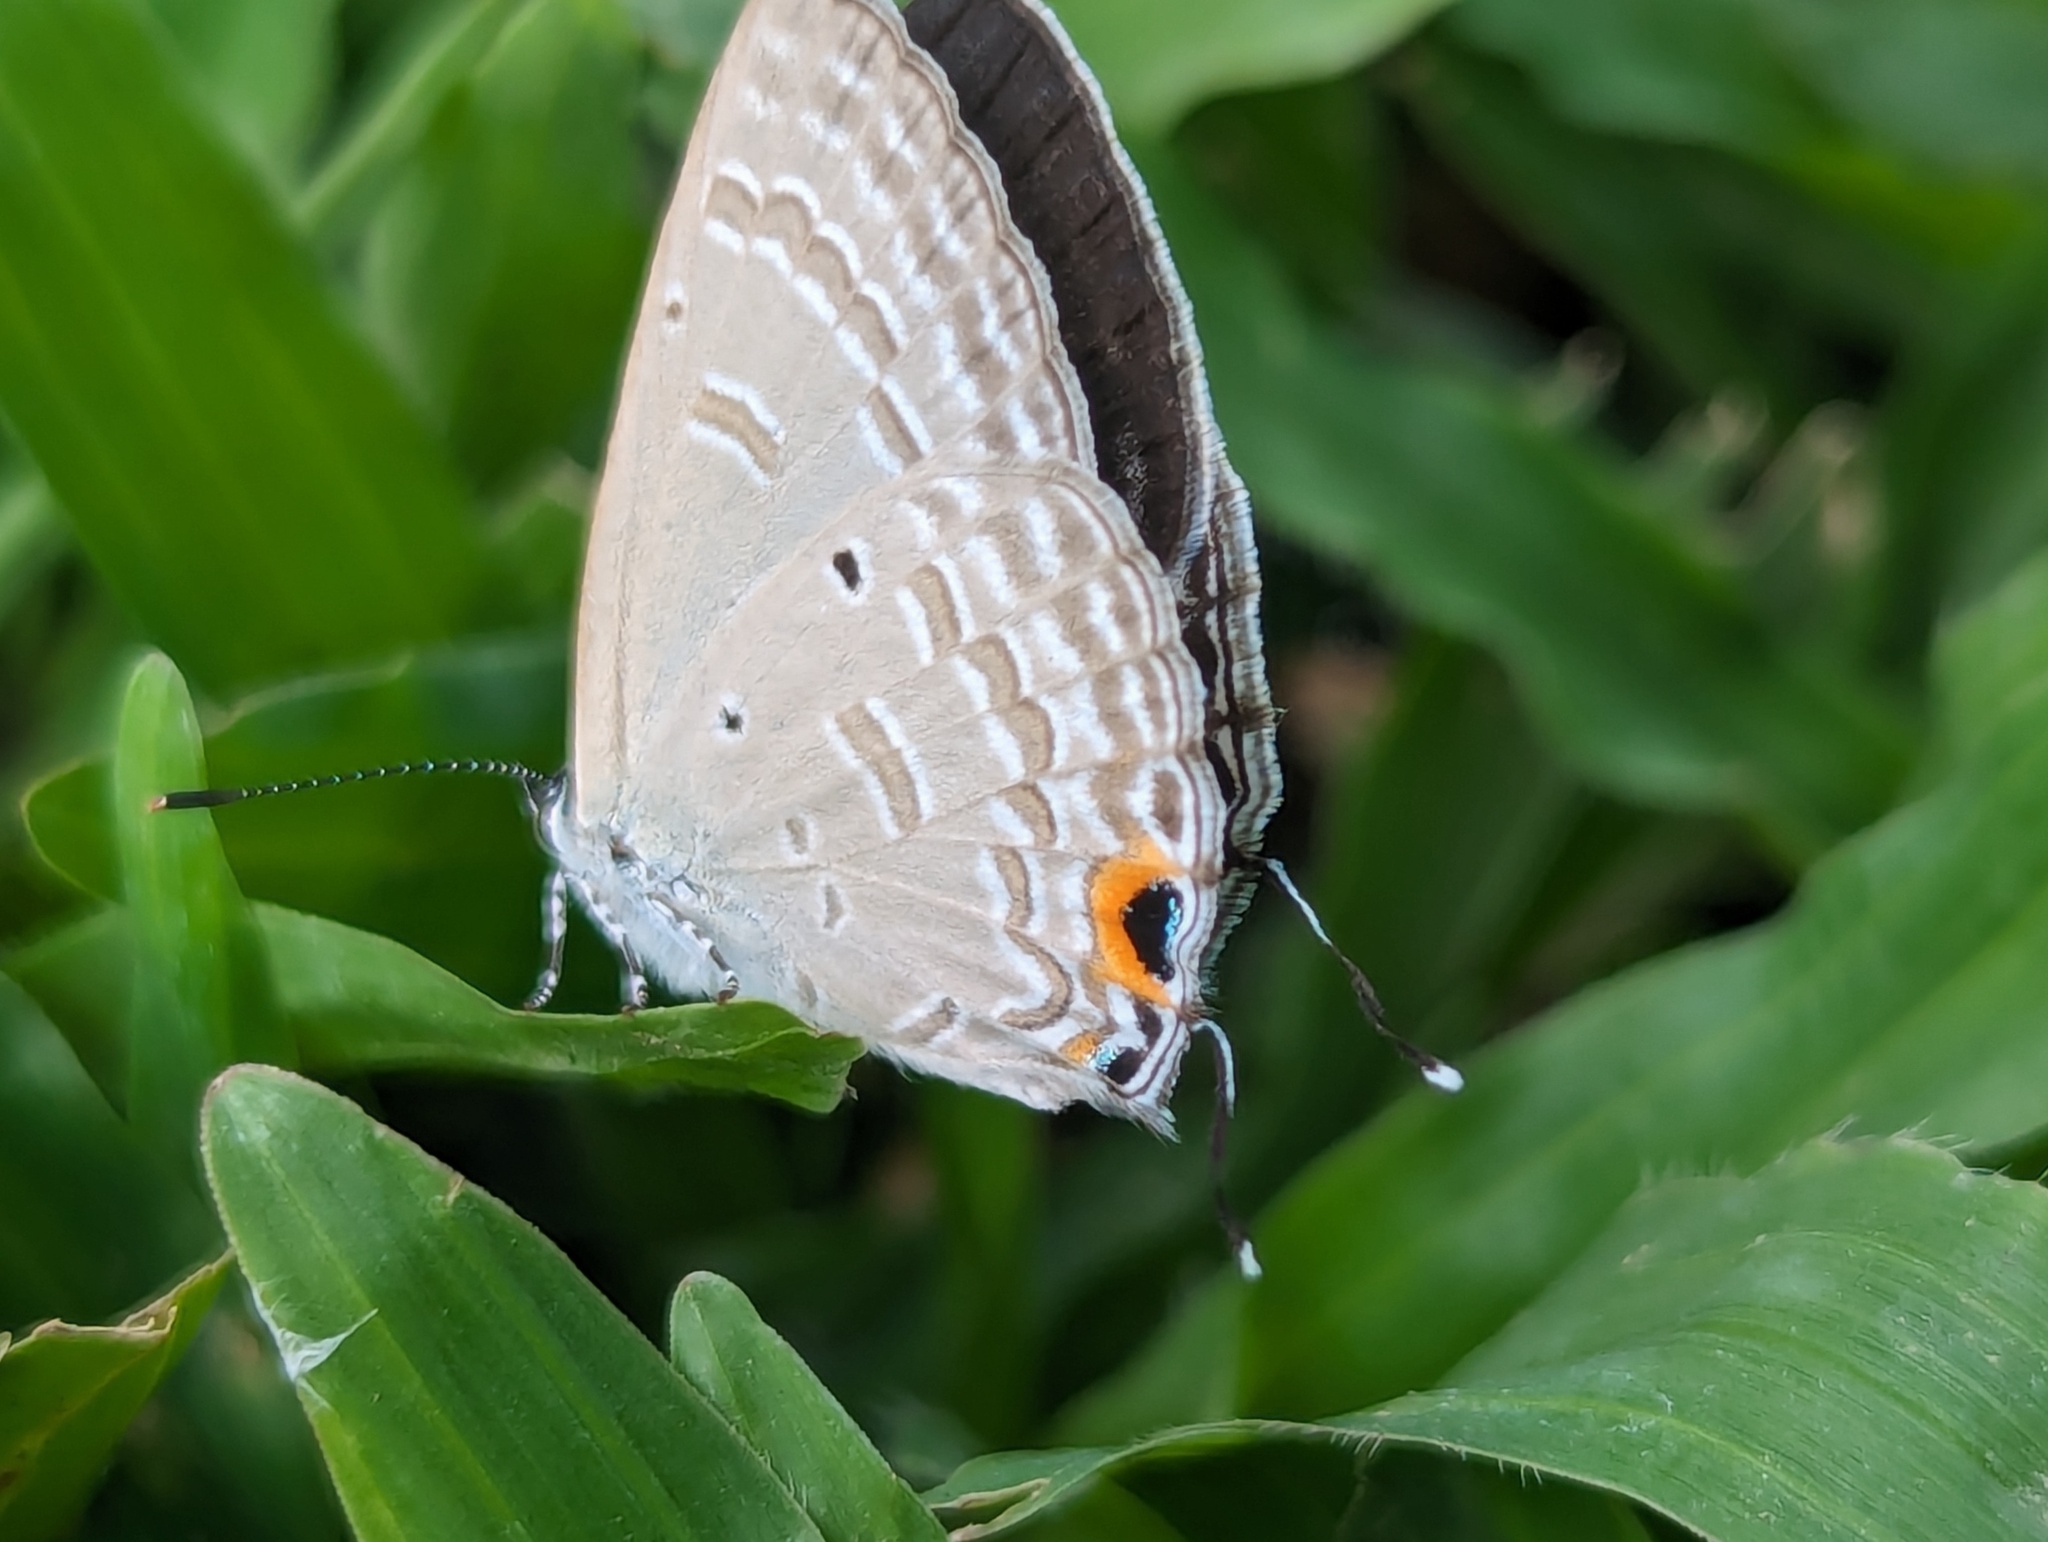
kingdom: Animalia
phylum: Arthropoda
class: Insecta
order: Lepidoptera
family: Lycaenidae
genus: Catochrysops
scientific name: Catochrysops strabo
